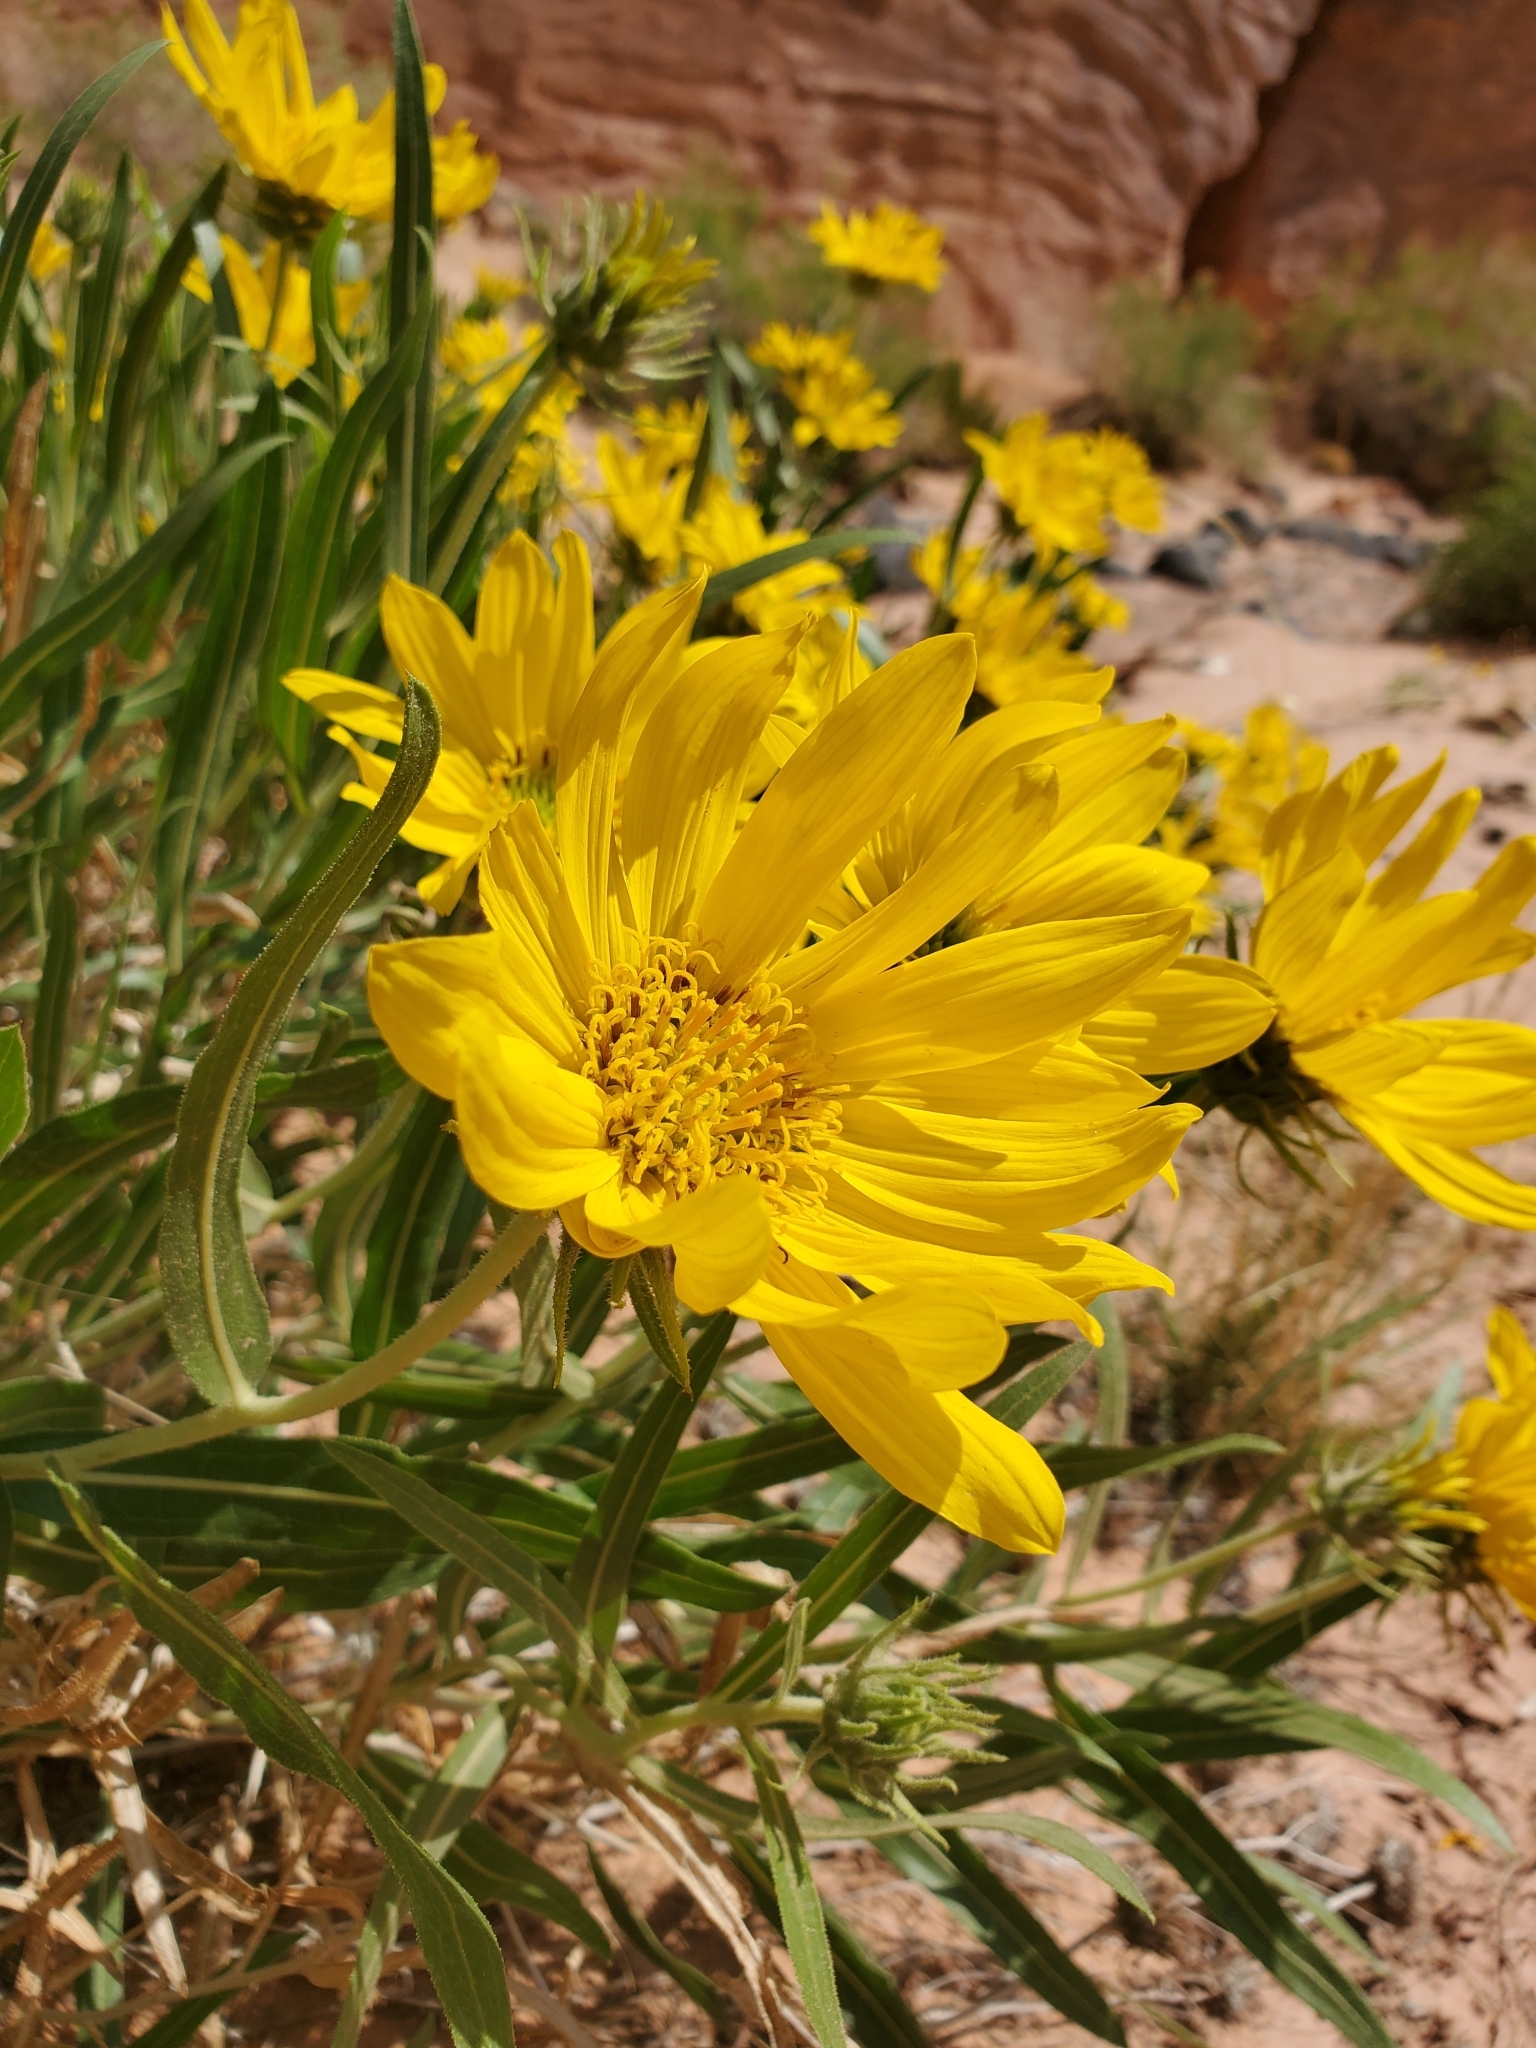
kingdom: Plantae
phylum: Tracheophyta
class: Magnoliopsida
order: Asterales
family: Asteraceae
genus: Scabrethia
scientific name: Scabrethia scabra
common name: Rough mules's-ears
